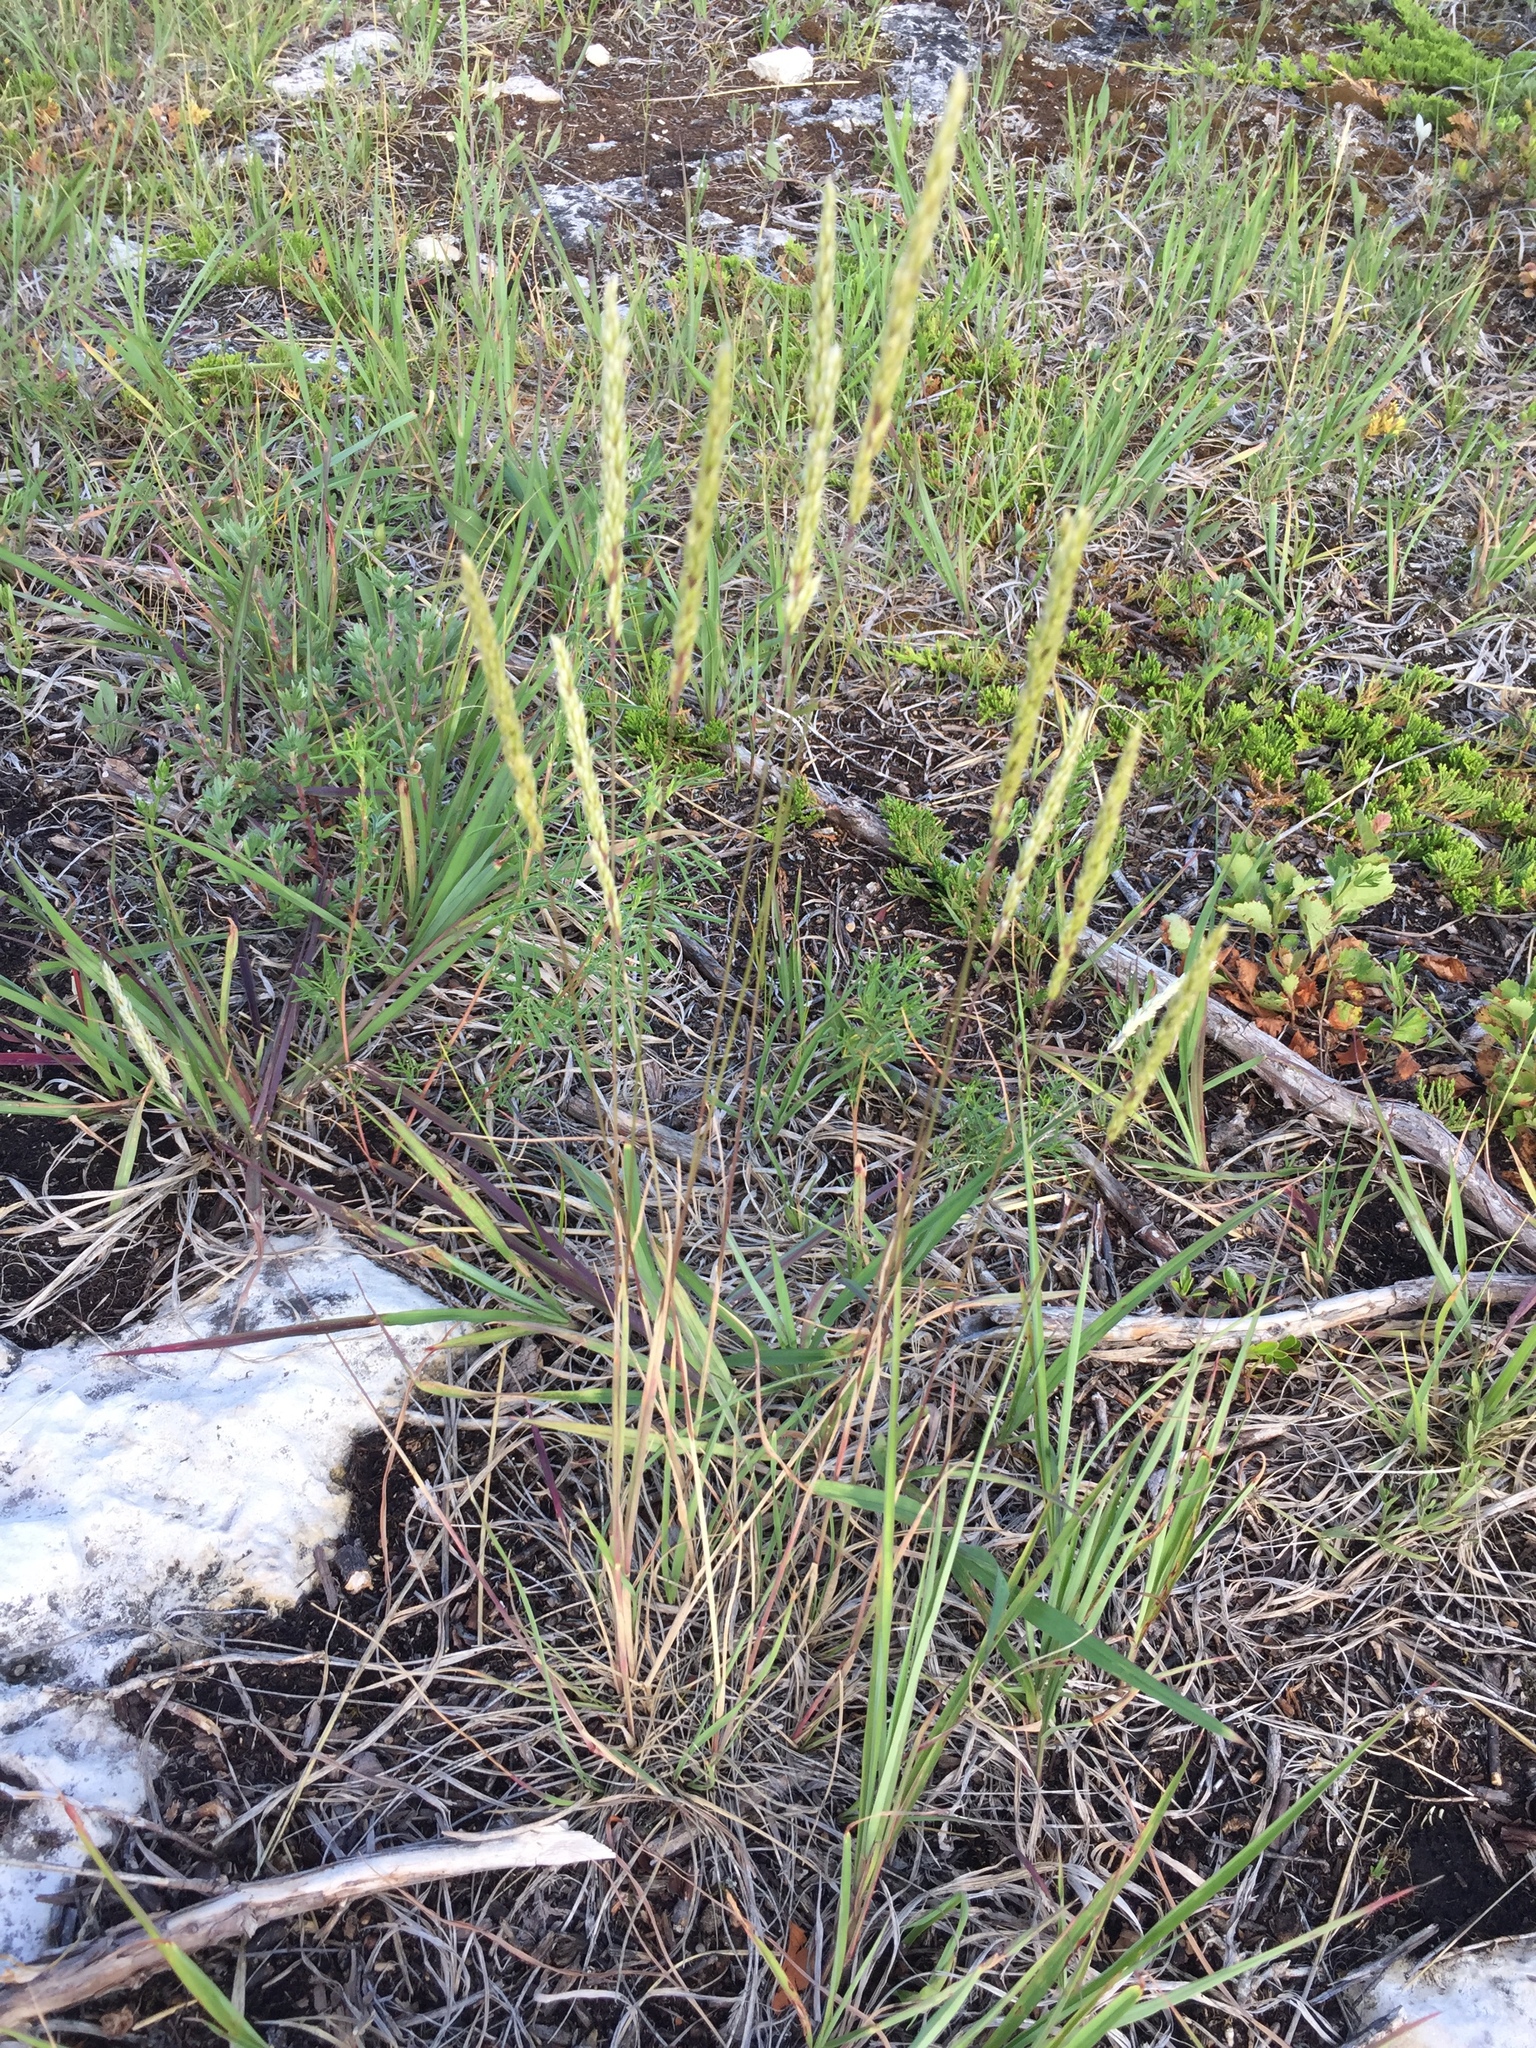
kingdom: Plantae
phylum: Tracheophyta
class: Liliopsida
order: Poales
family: Poaceae
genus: Koeleria
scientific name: Koeleria macrantha
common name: Crested hair-grass
